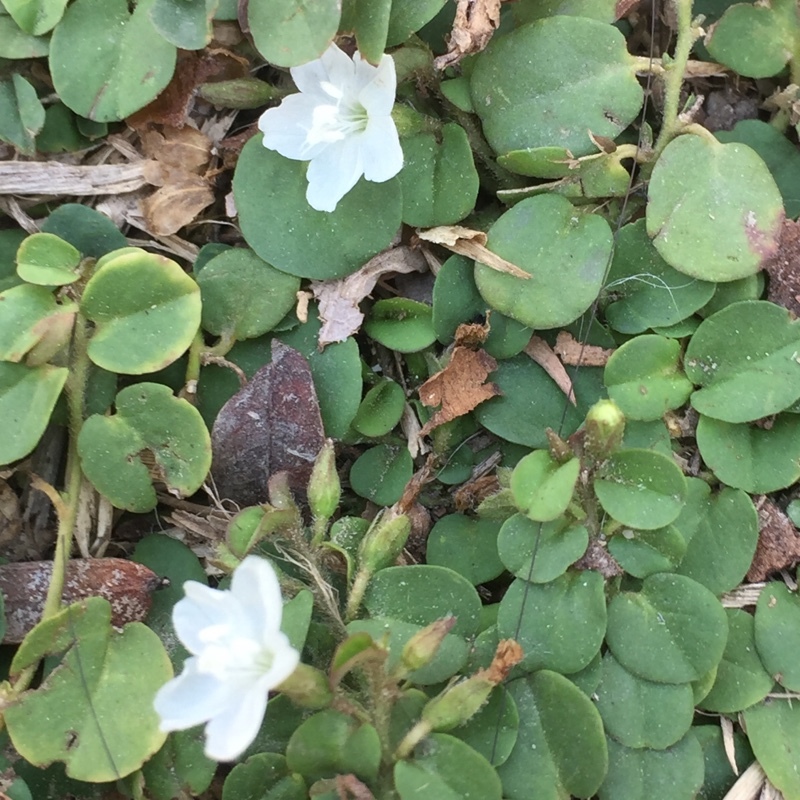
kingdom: Plantae
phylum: Tracheophyta
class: Magnoliopsida
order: Solanales
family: Convolvulaceae
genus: Evolvulus
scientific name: Evolvulus nummularius
